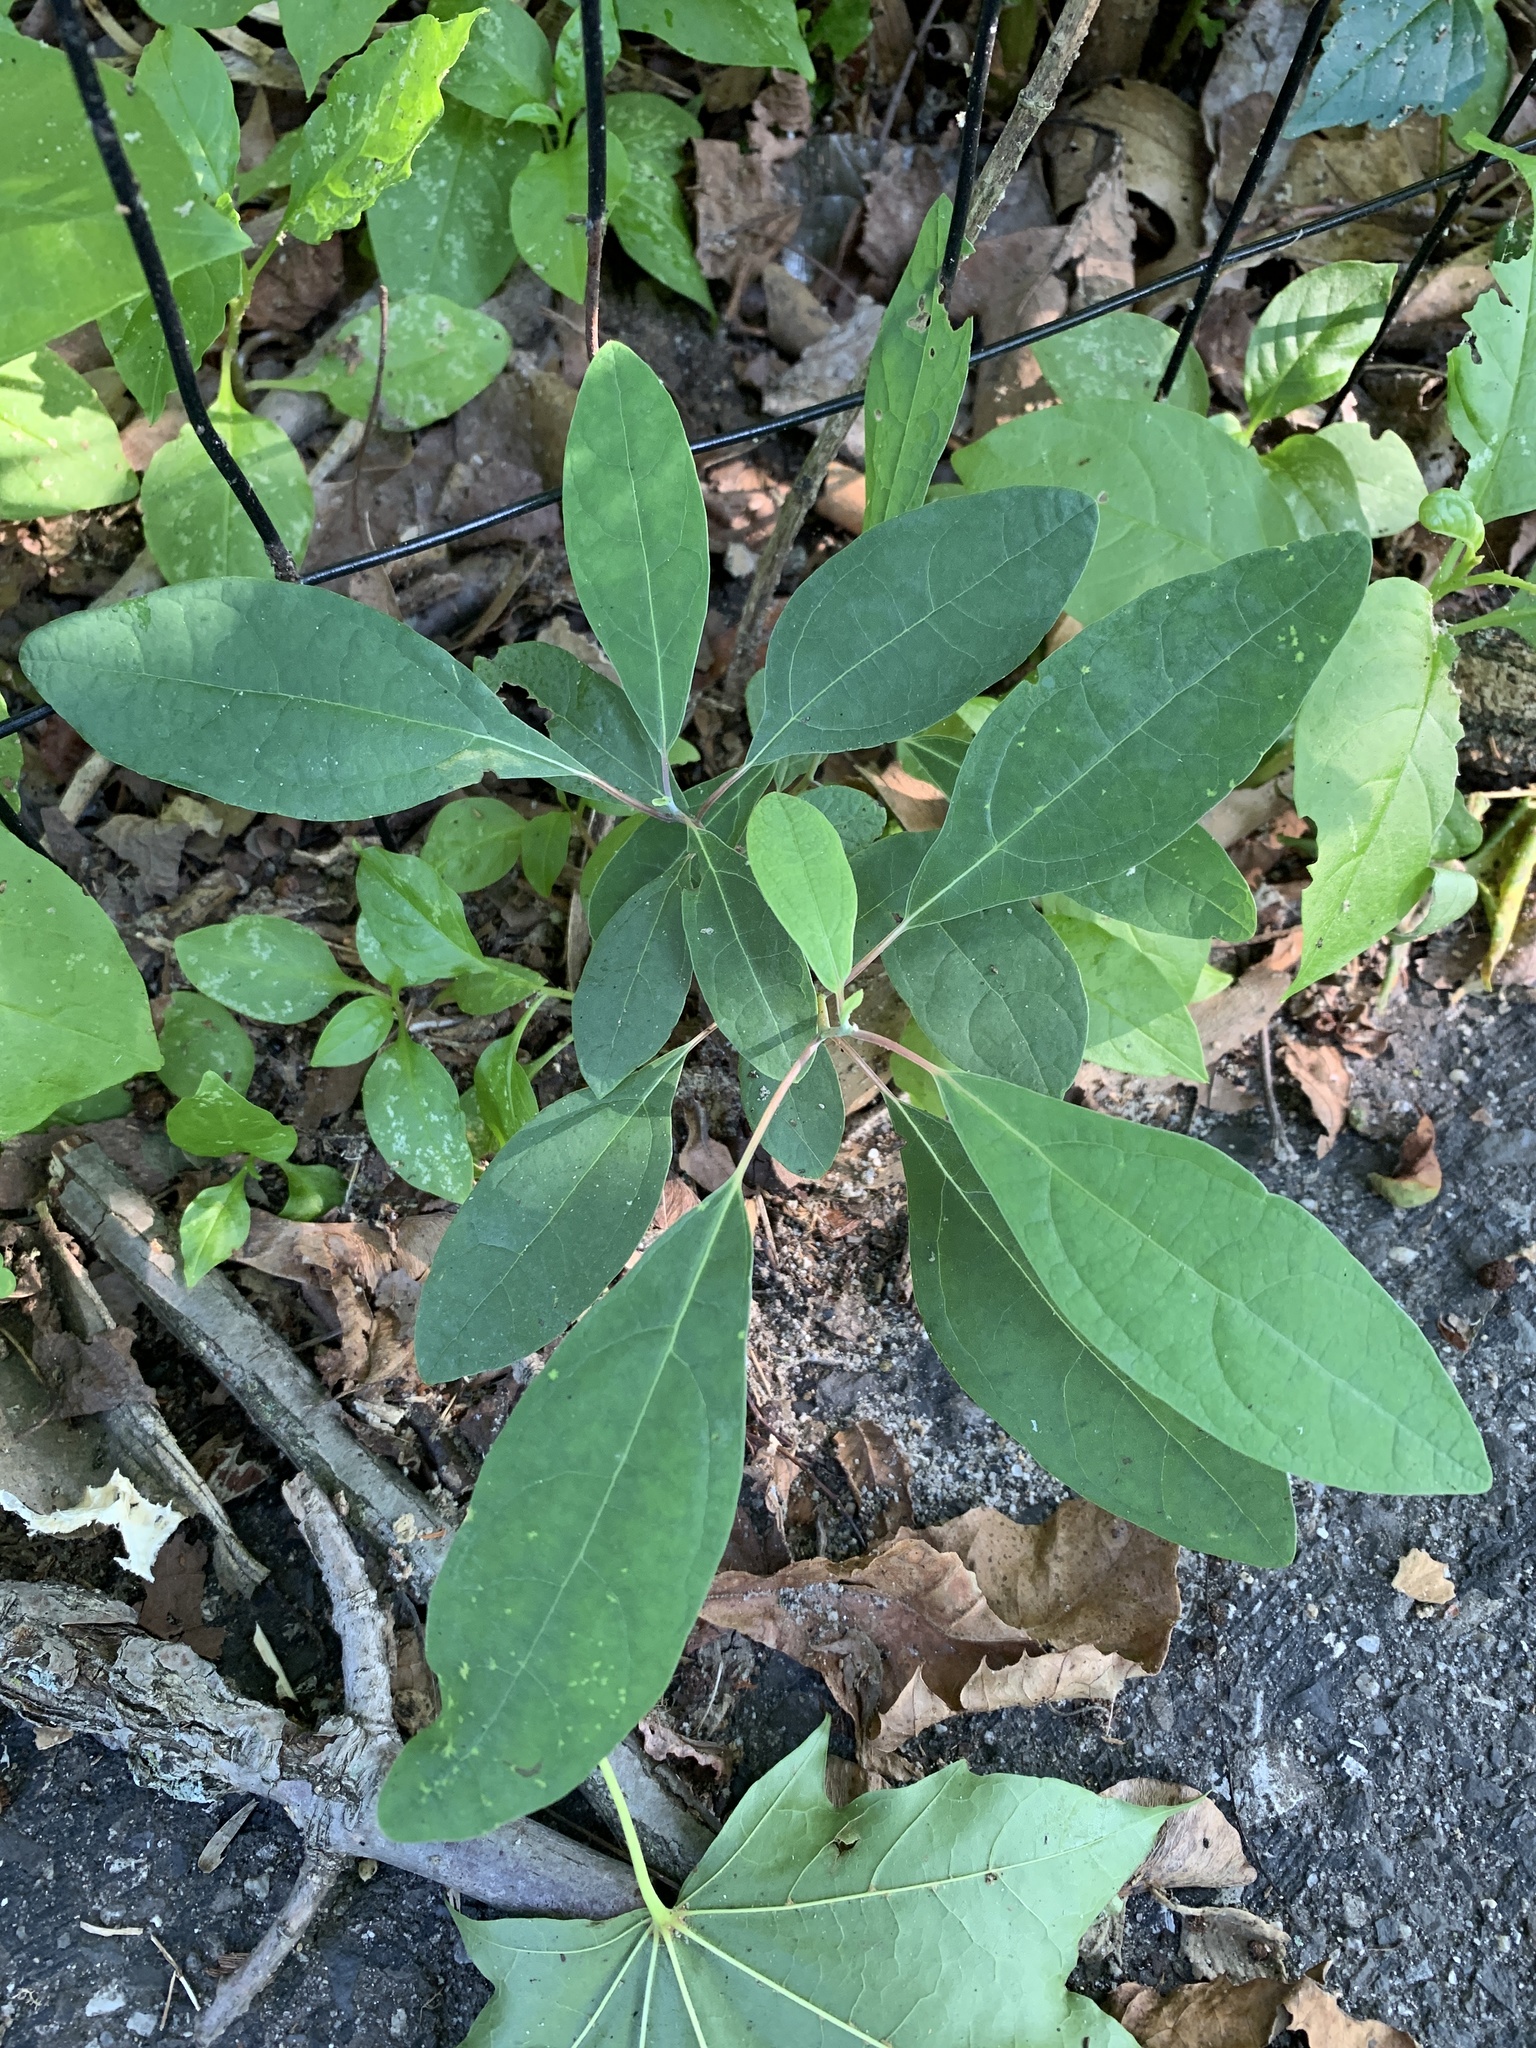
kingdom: Plantae
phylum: Tracheophyta
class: Magnoliopsida
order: Laurales
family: Lauraceae
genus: Sassafras
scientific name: Sassafras albidum
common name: Sassafras
